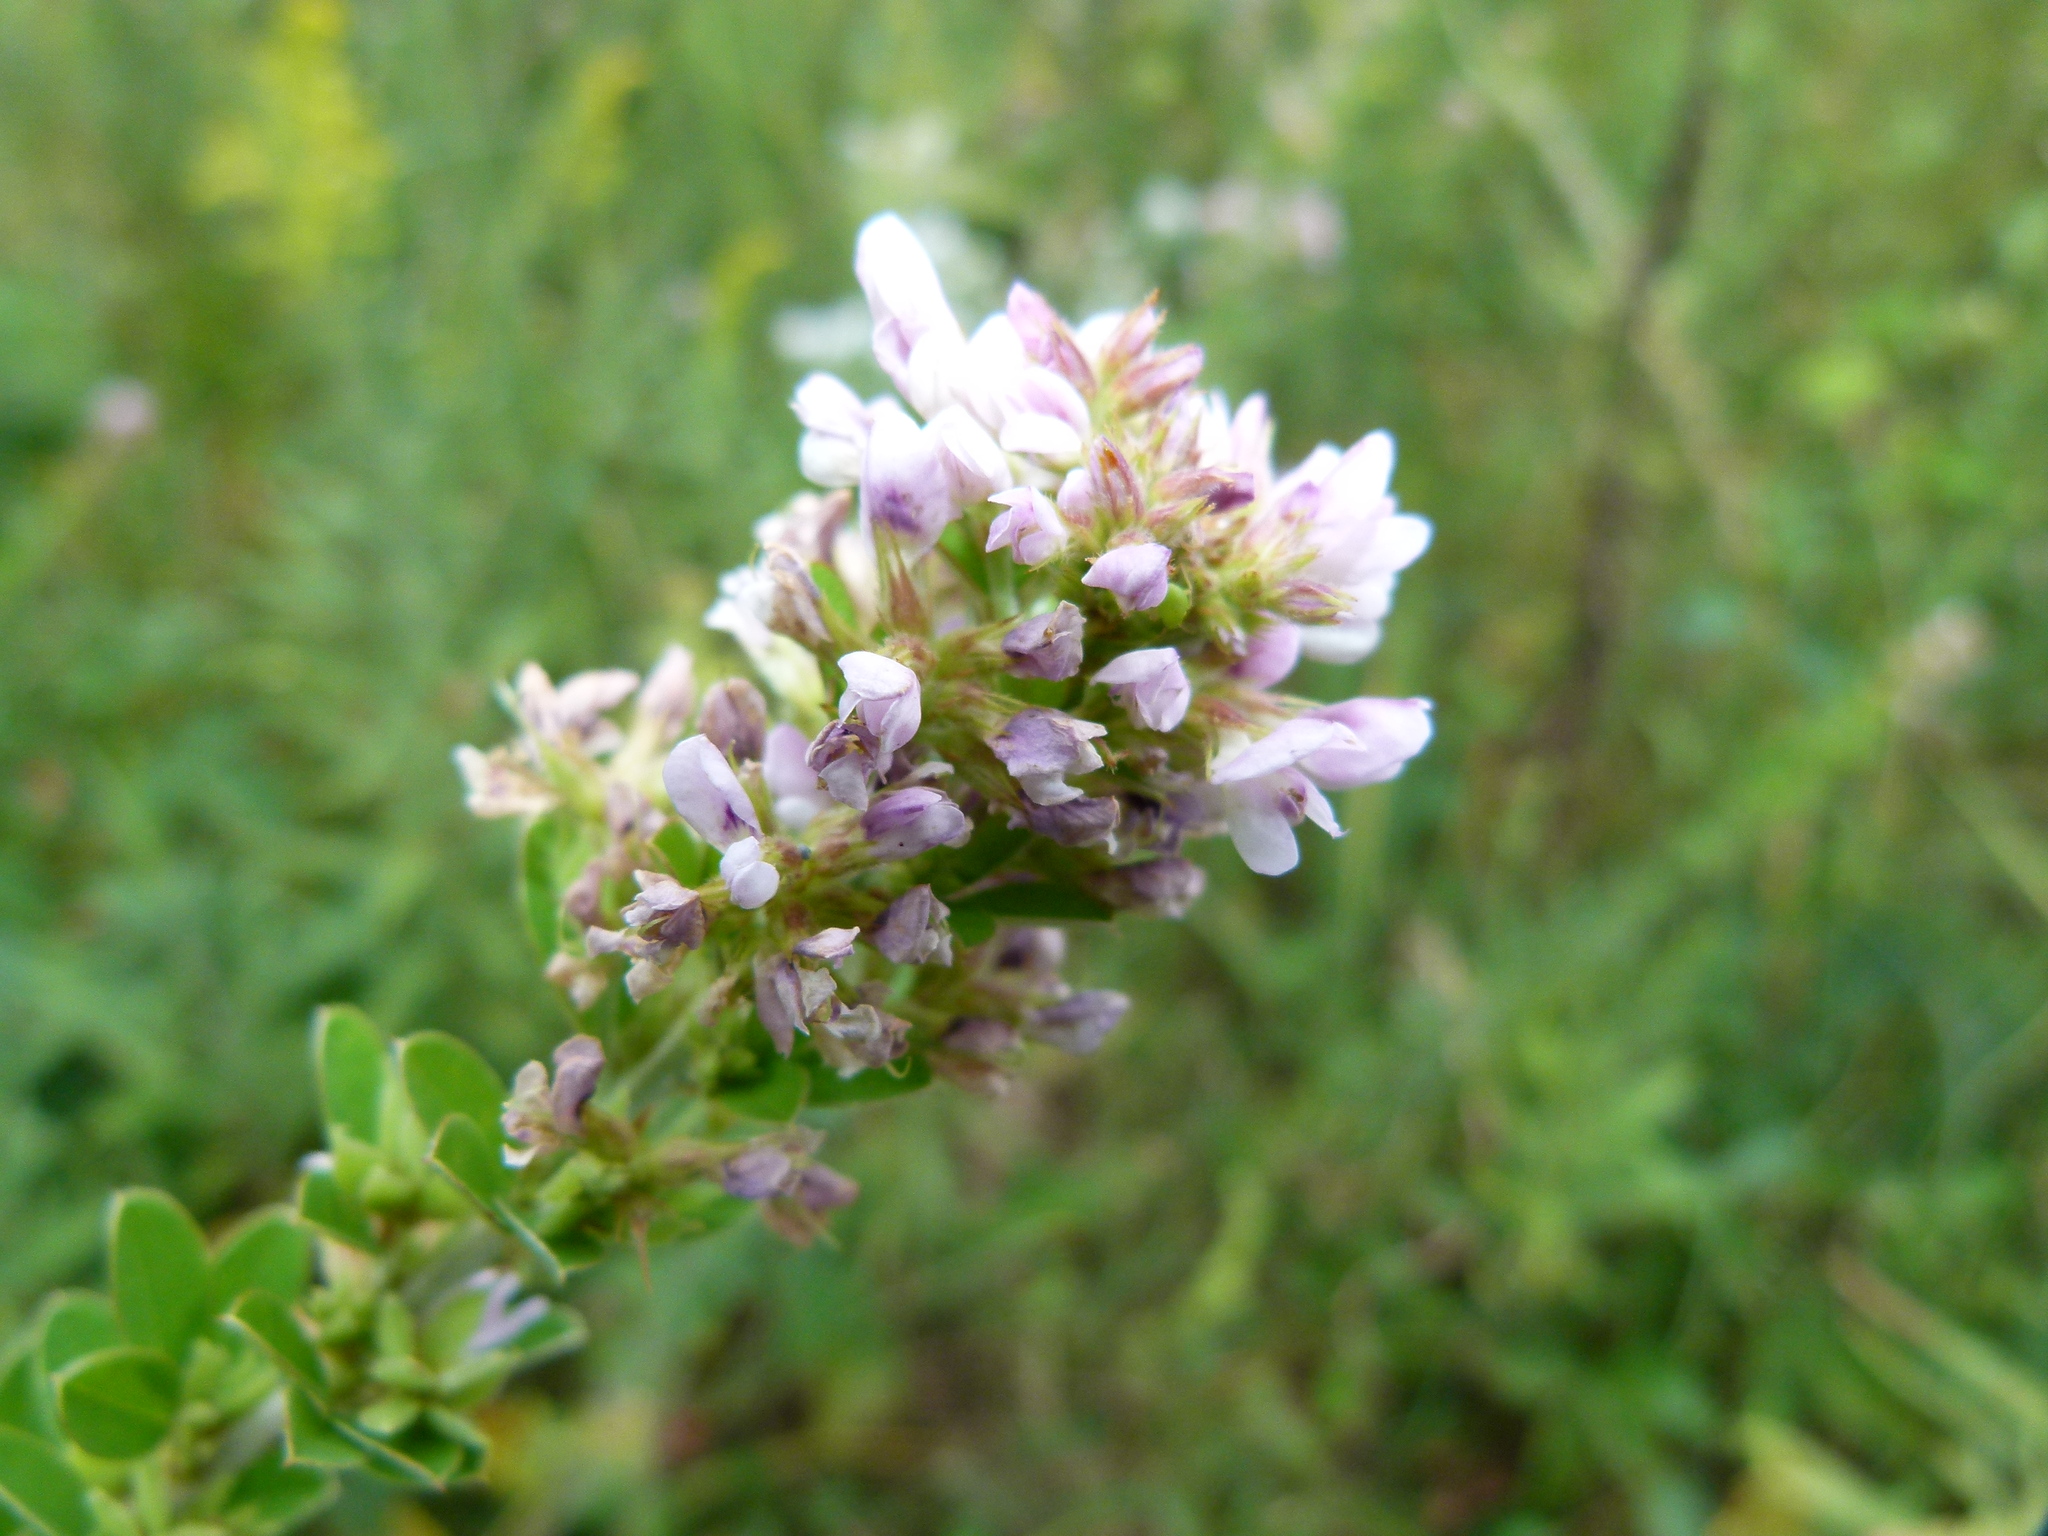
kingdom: Plantae
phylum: Tracheophyta
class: Magnoliopsida
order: Fabales
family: Fabaceae
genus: Lespedeza
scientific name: Lespedeza stuevei
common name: Tall bush-clover
